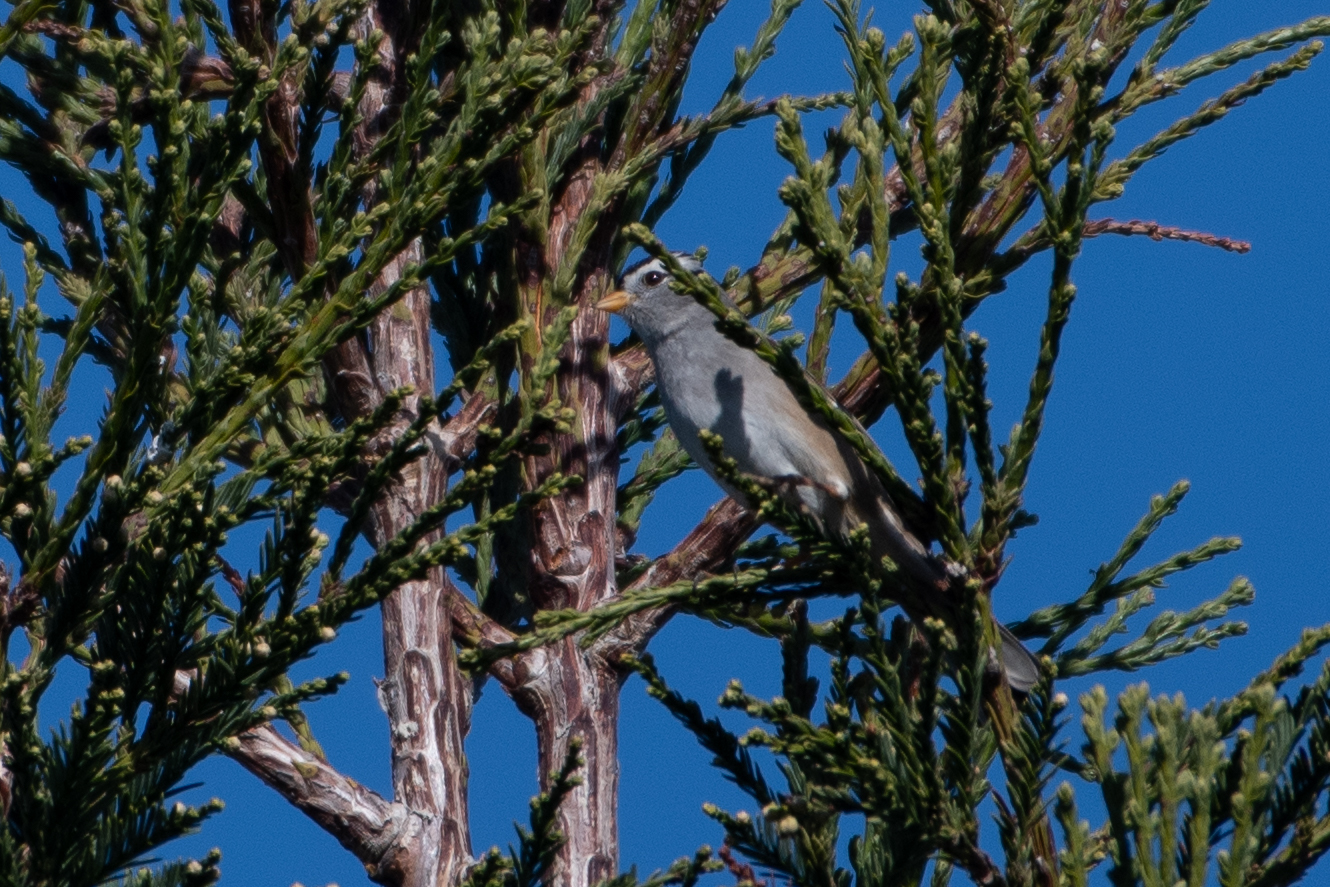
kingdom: Animalia
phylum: Chordata
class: Aves
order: Passeriformes
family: Passerellidae
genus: Zonotrichia
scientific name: Zonotrichia leucophrys
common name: White-crowned sparrow
